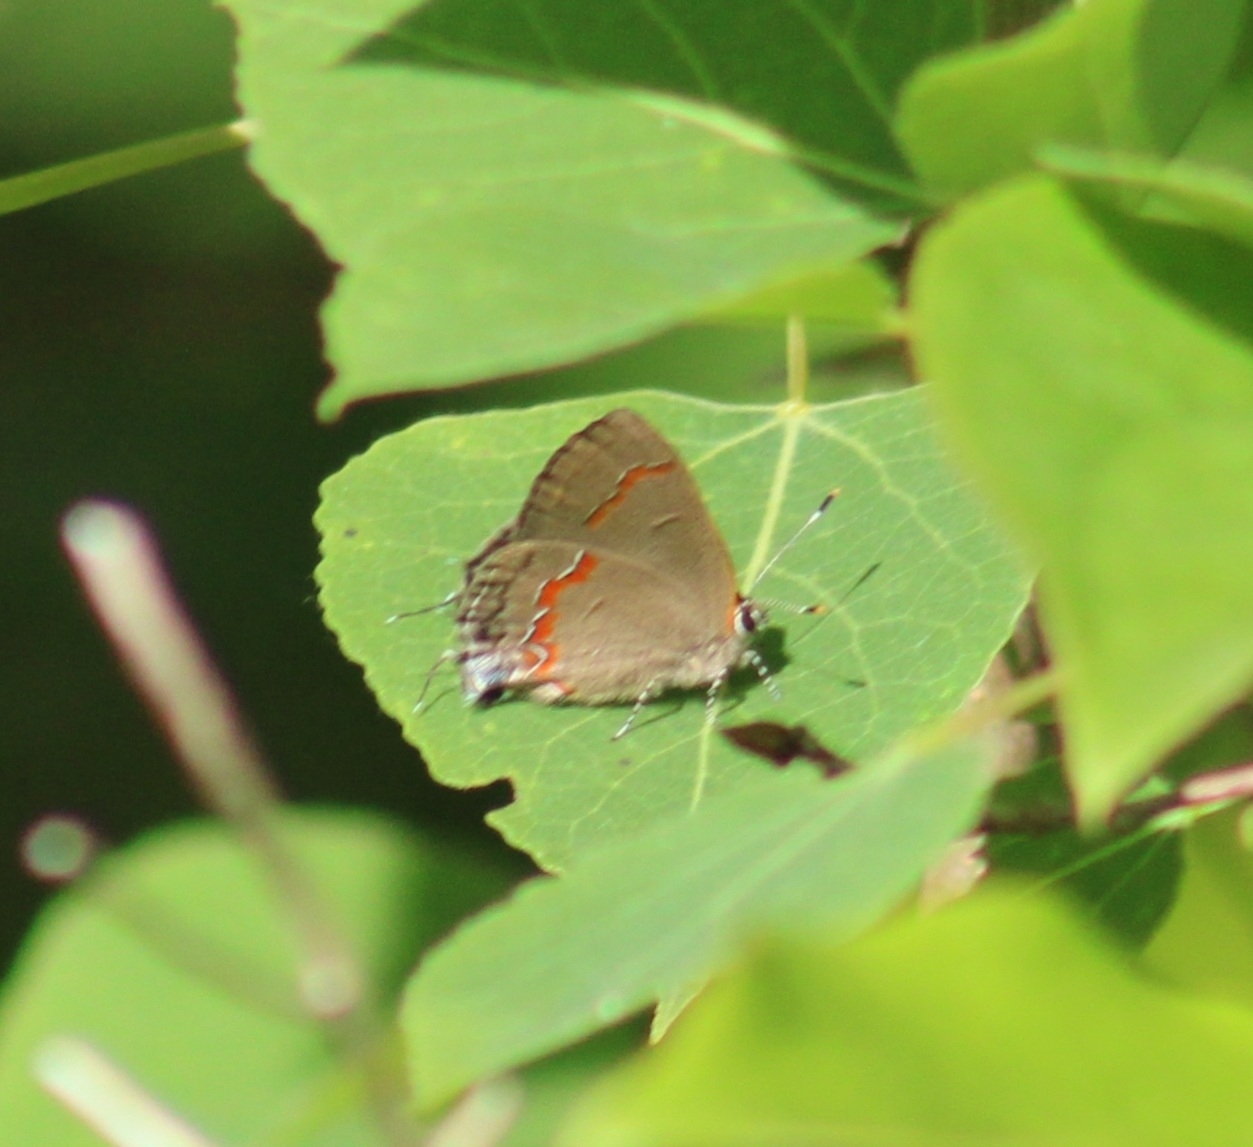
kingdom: Animalia
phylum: Arthropoda
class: Insecta
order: Lepidoptera
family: Lycaenidae
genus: Calycopis
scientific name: Calycopis cecrops
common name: Red-banded hairstreak
